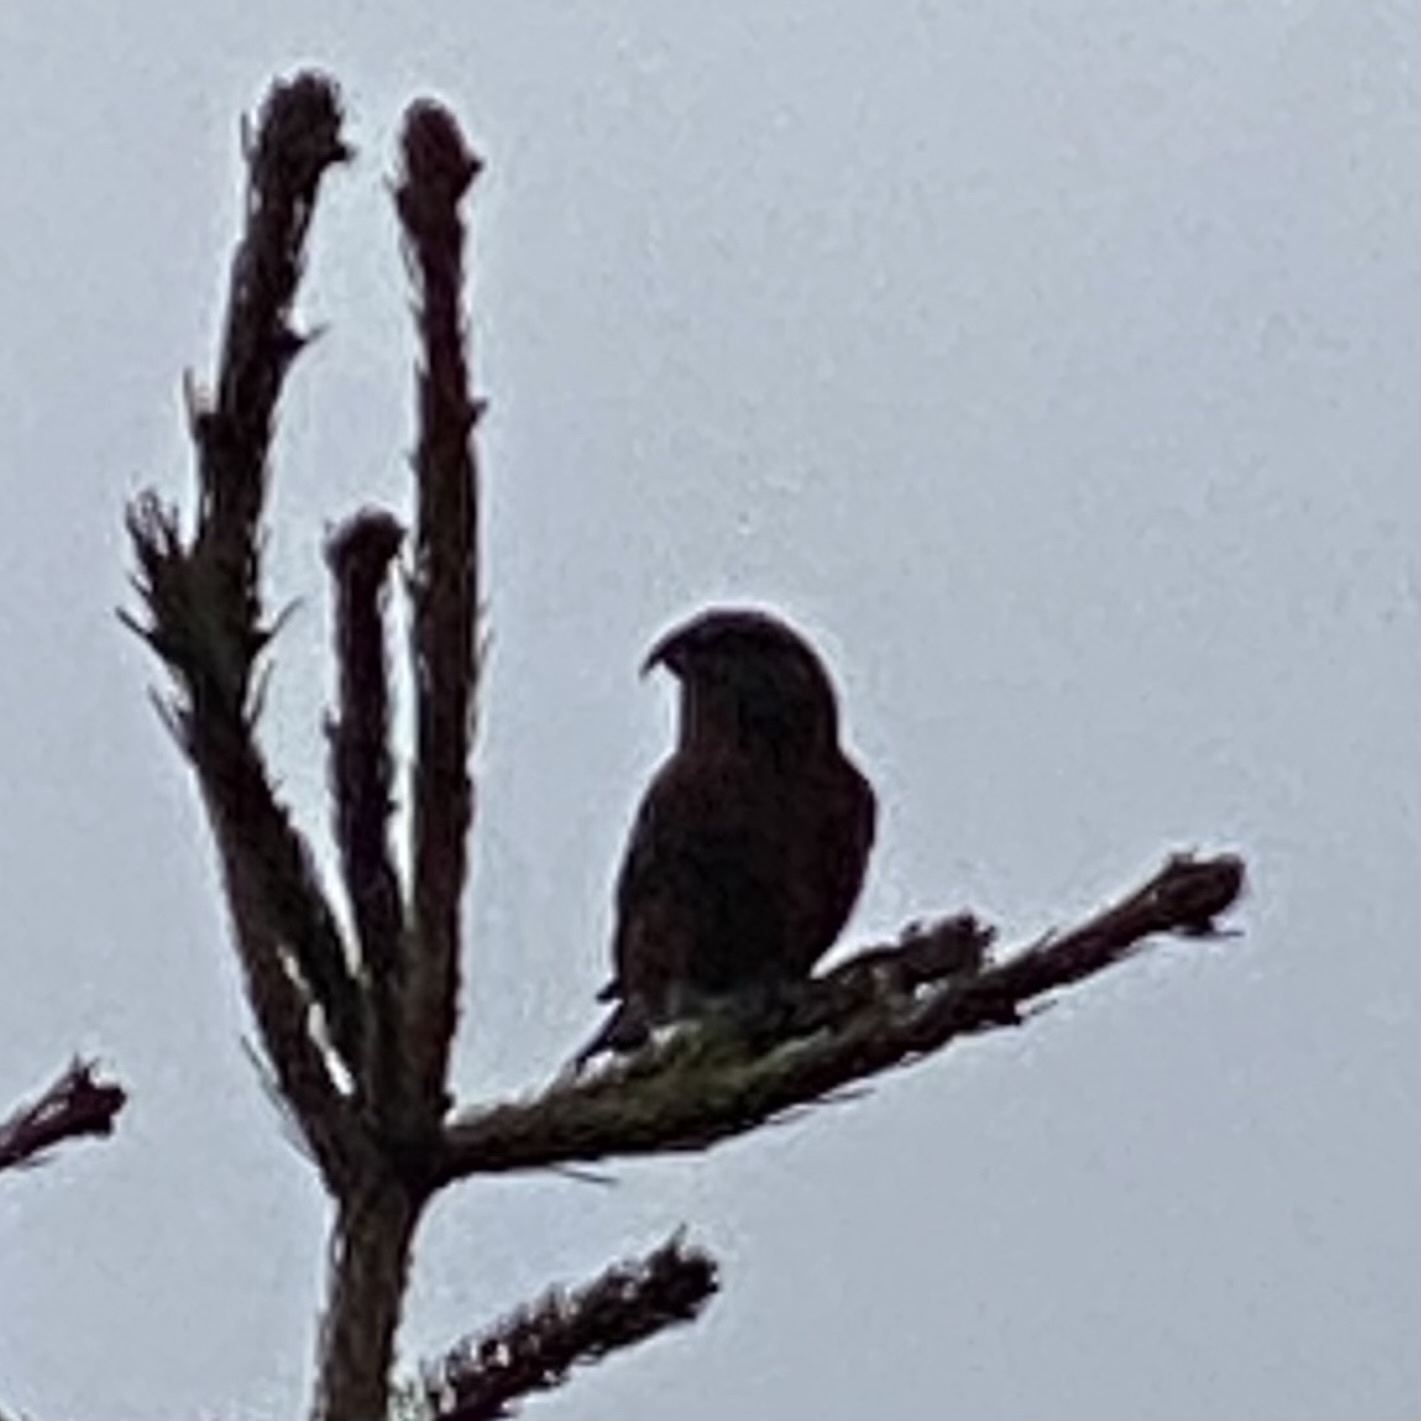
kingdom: Animalia
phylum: Chordata
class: Aves
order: Passeriformes
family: Fringillidae
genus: Loxia
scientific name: Loxia curvirostra
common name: Red crossbill
